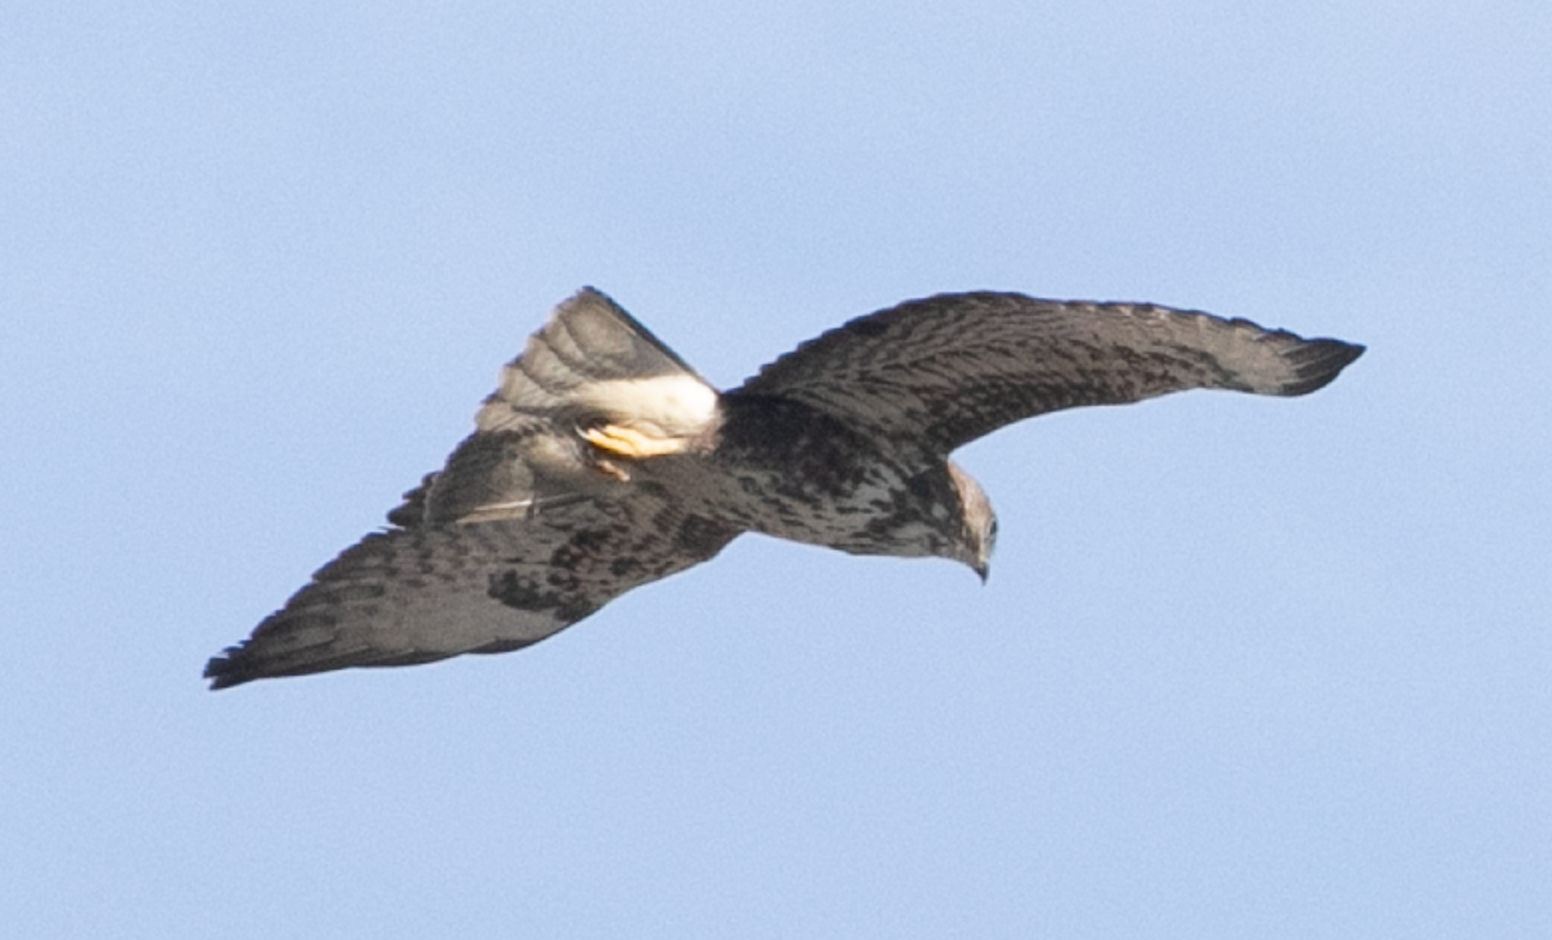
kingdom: Animalia
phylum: Chordata
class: Aves
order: Accipitriformes
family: Accipitridae
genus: Buteo
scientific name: Buteo buteo
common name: Common buzzard
